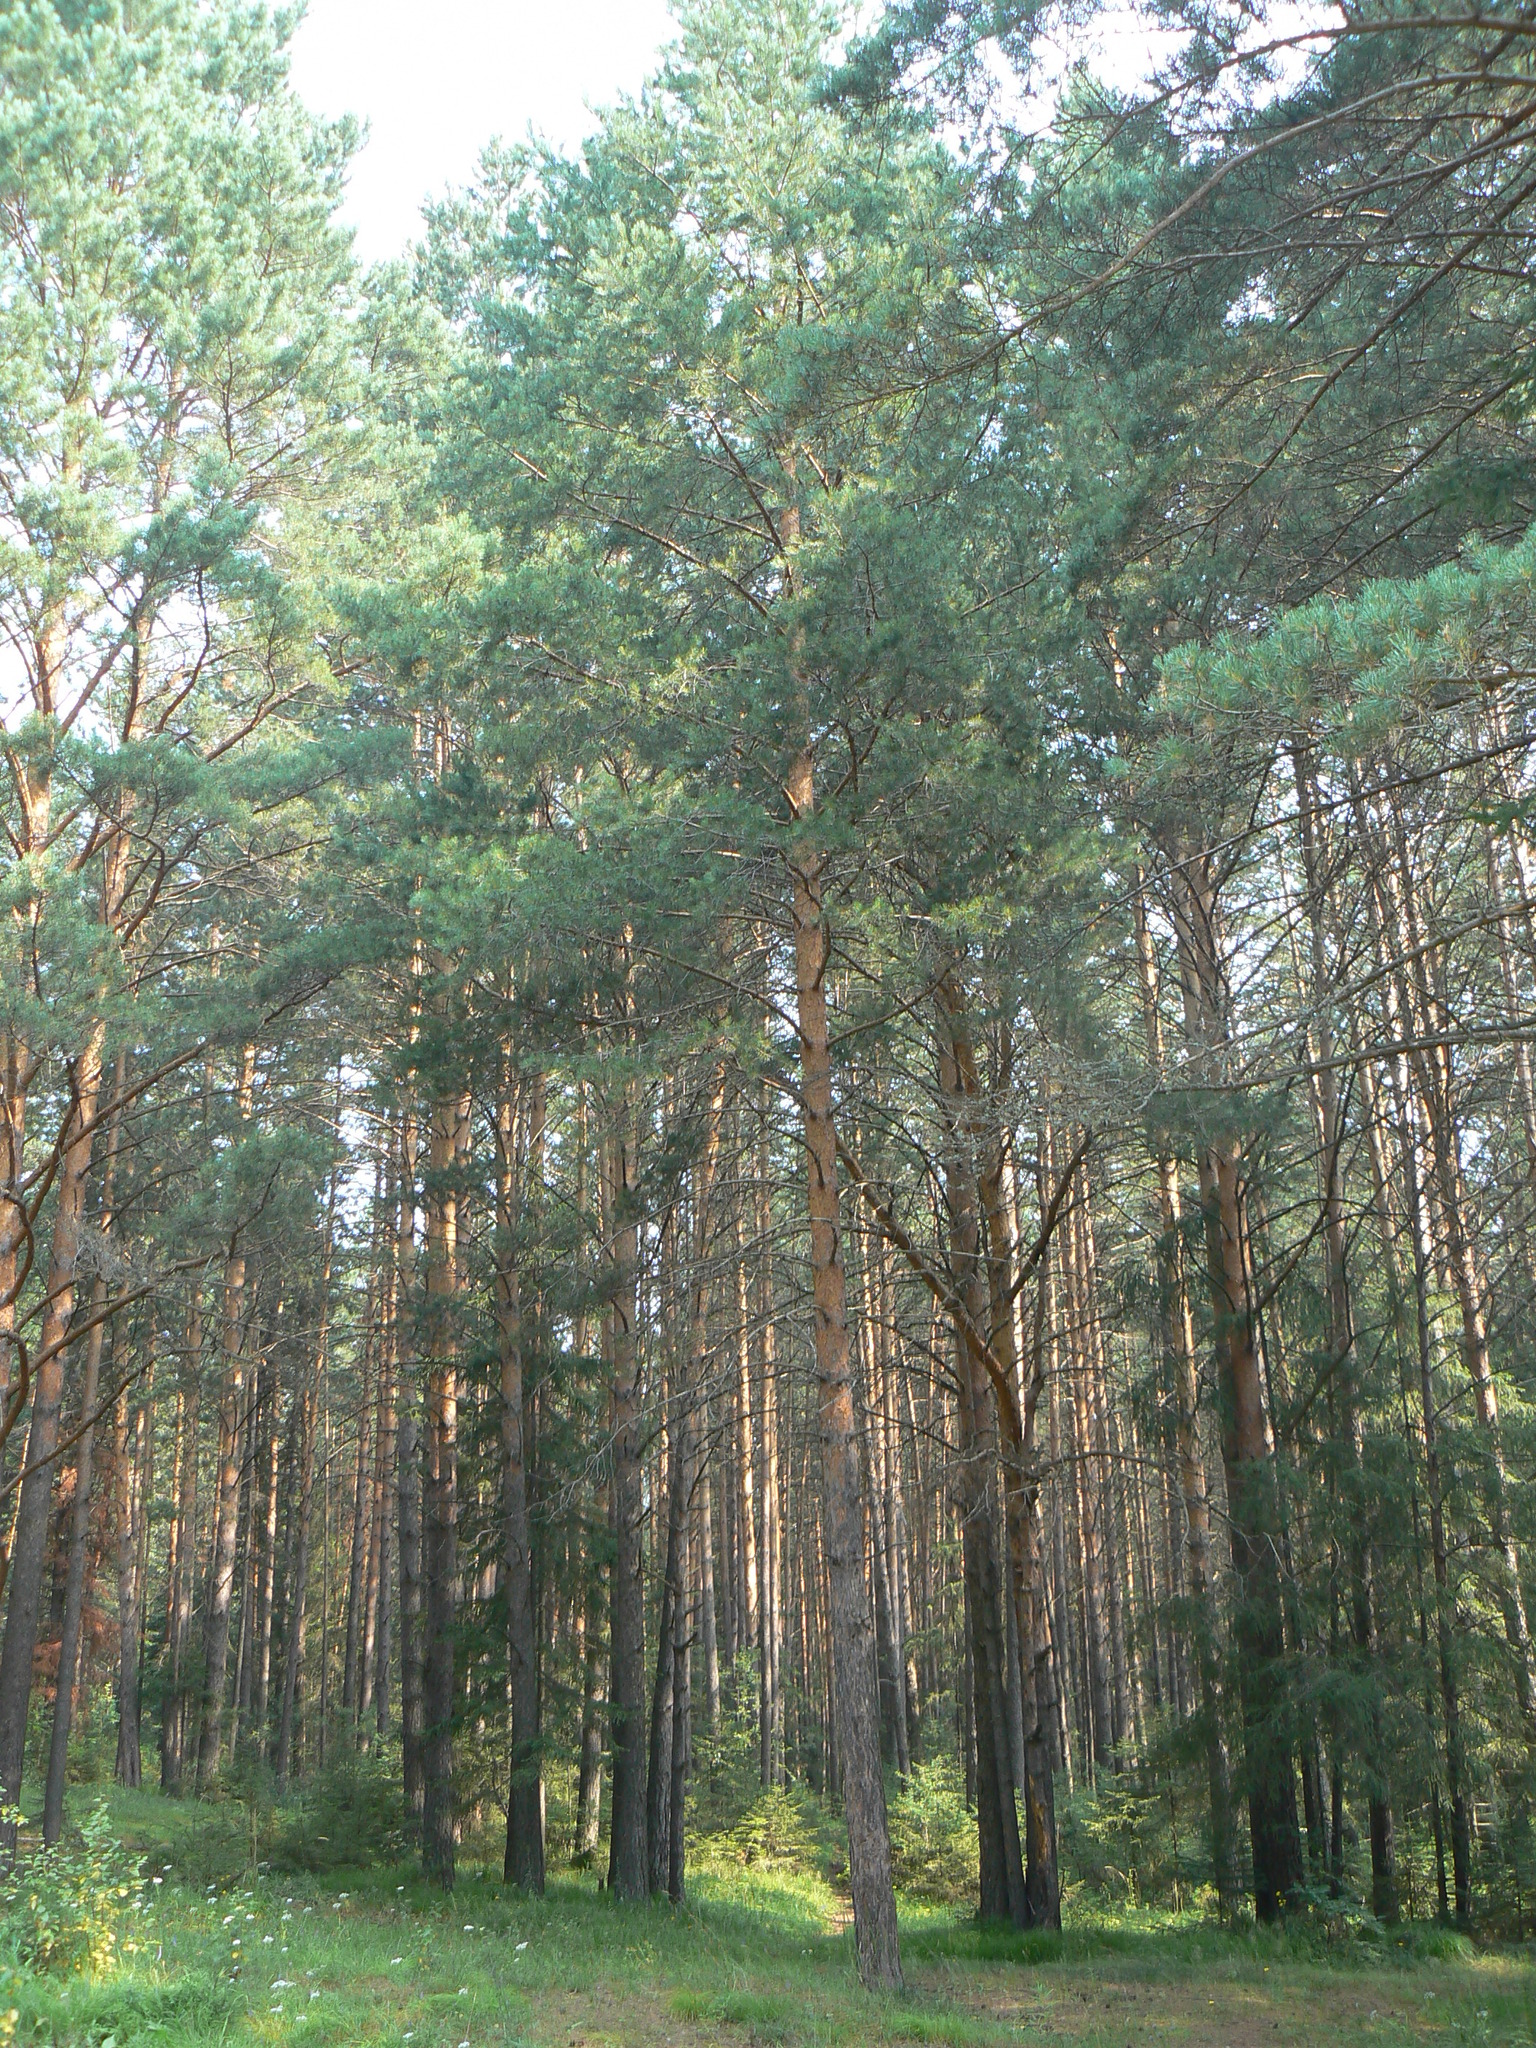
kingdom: Plantae
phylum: Tracheophyta
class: Pinopsida
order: Pinales
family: Pinaceae
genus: Pinus
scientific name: Pinus sylvestris
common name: Scots pine
